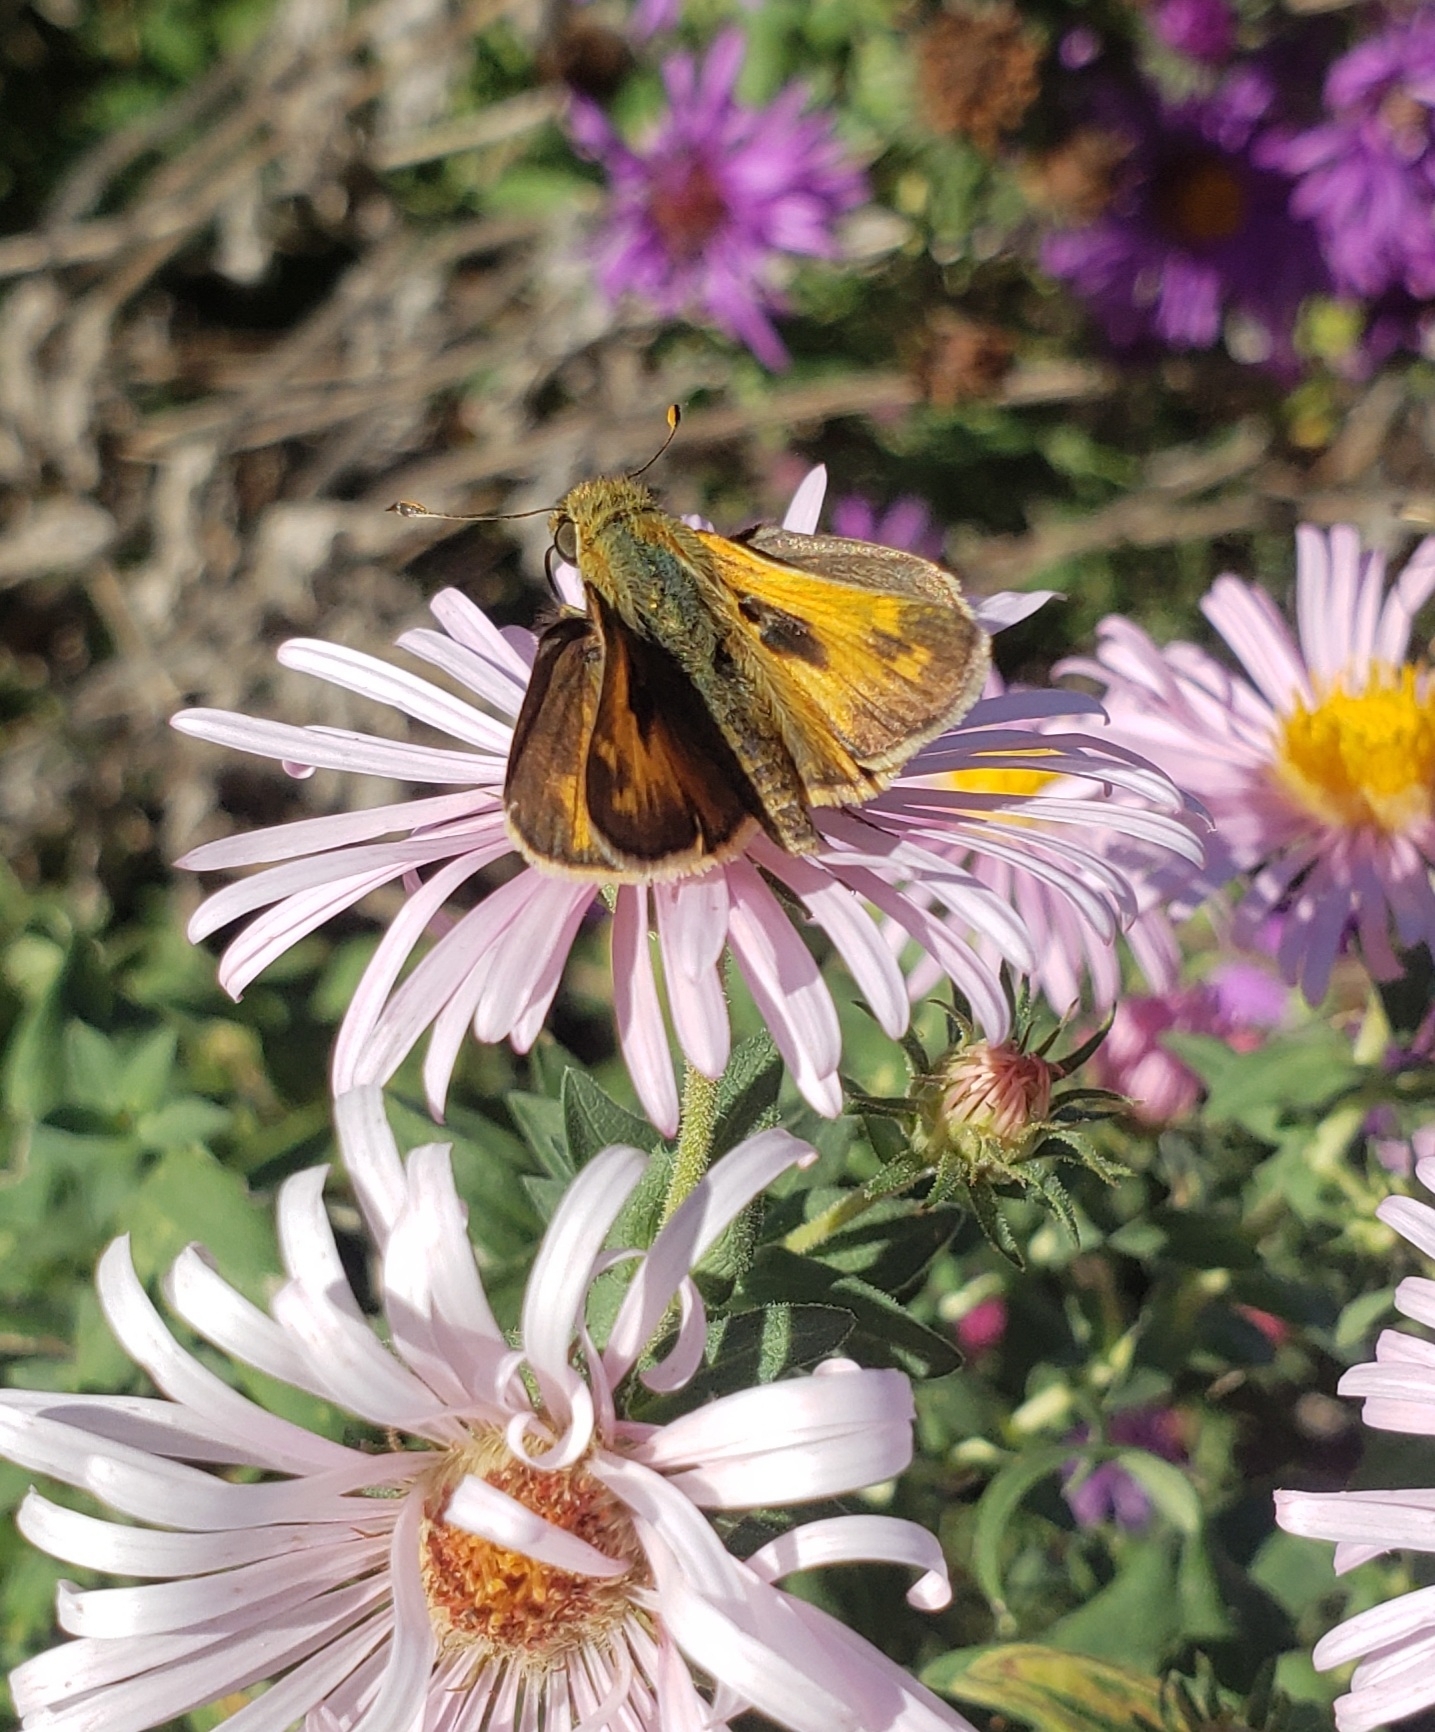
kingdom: Animalia
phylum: Arthropoda
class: Insecta
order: Lepidoptera
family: Hesperiidae
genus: Atalopedes
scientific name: Atalopedes
